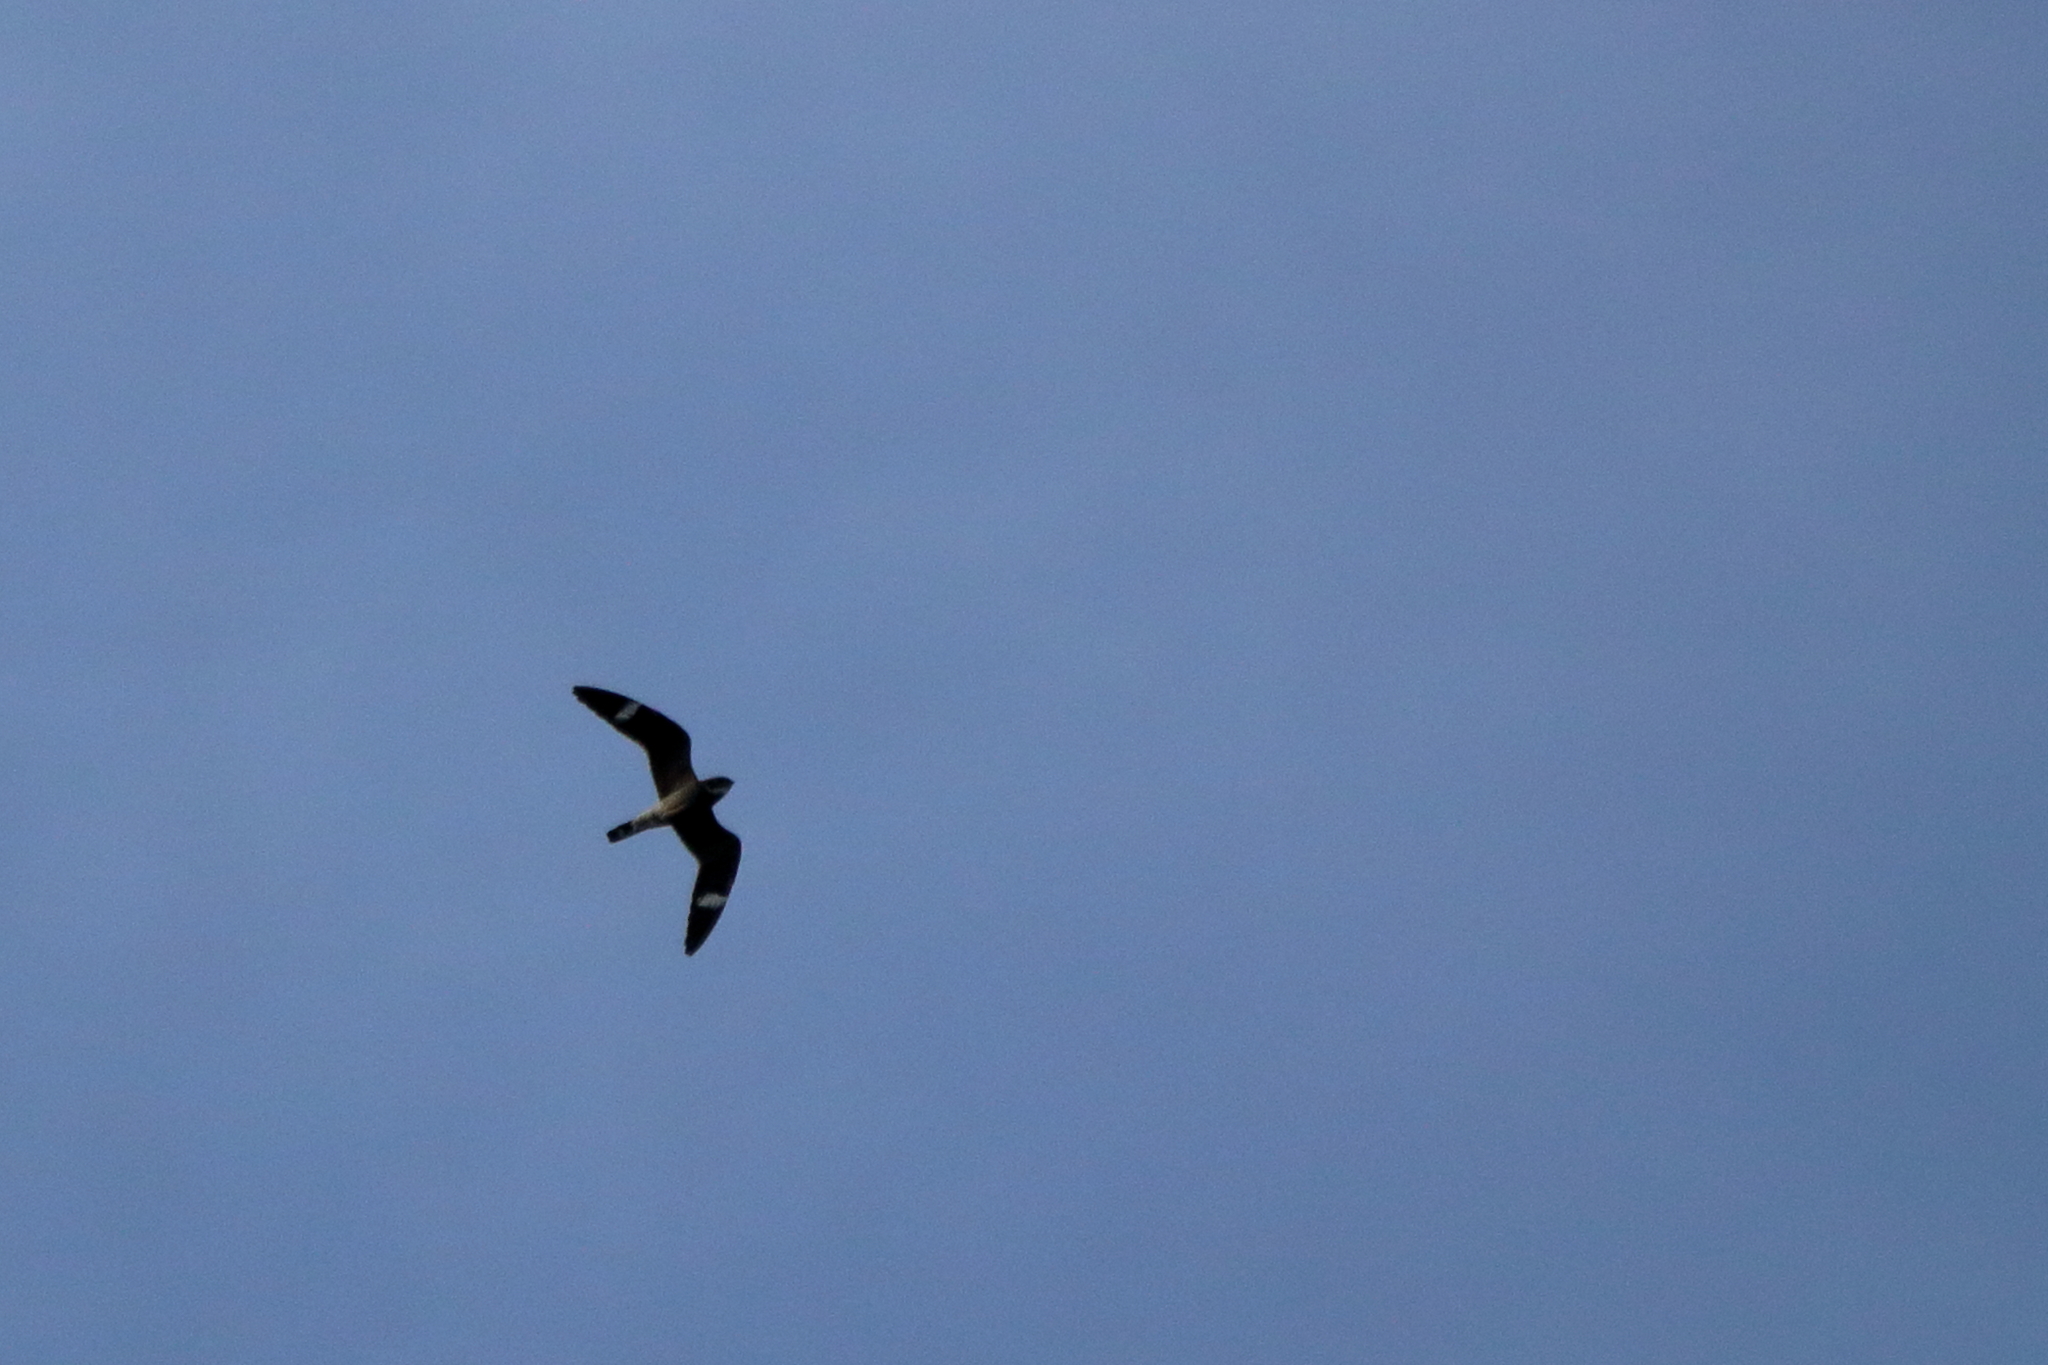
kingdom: Animalia
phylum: Chordata
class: Aves
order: Caprimulgiformes
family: Caprimulgidae
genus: Chordeiles
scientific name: Chordeiles minor
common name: Common nighthawk
